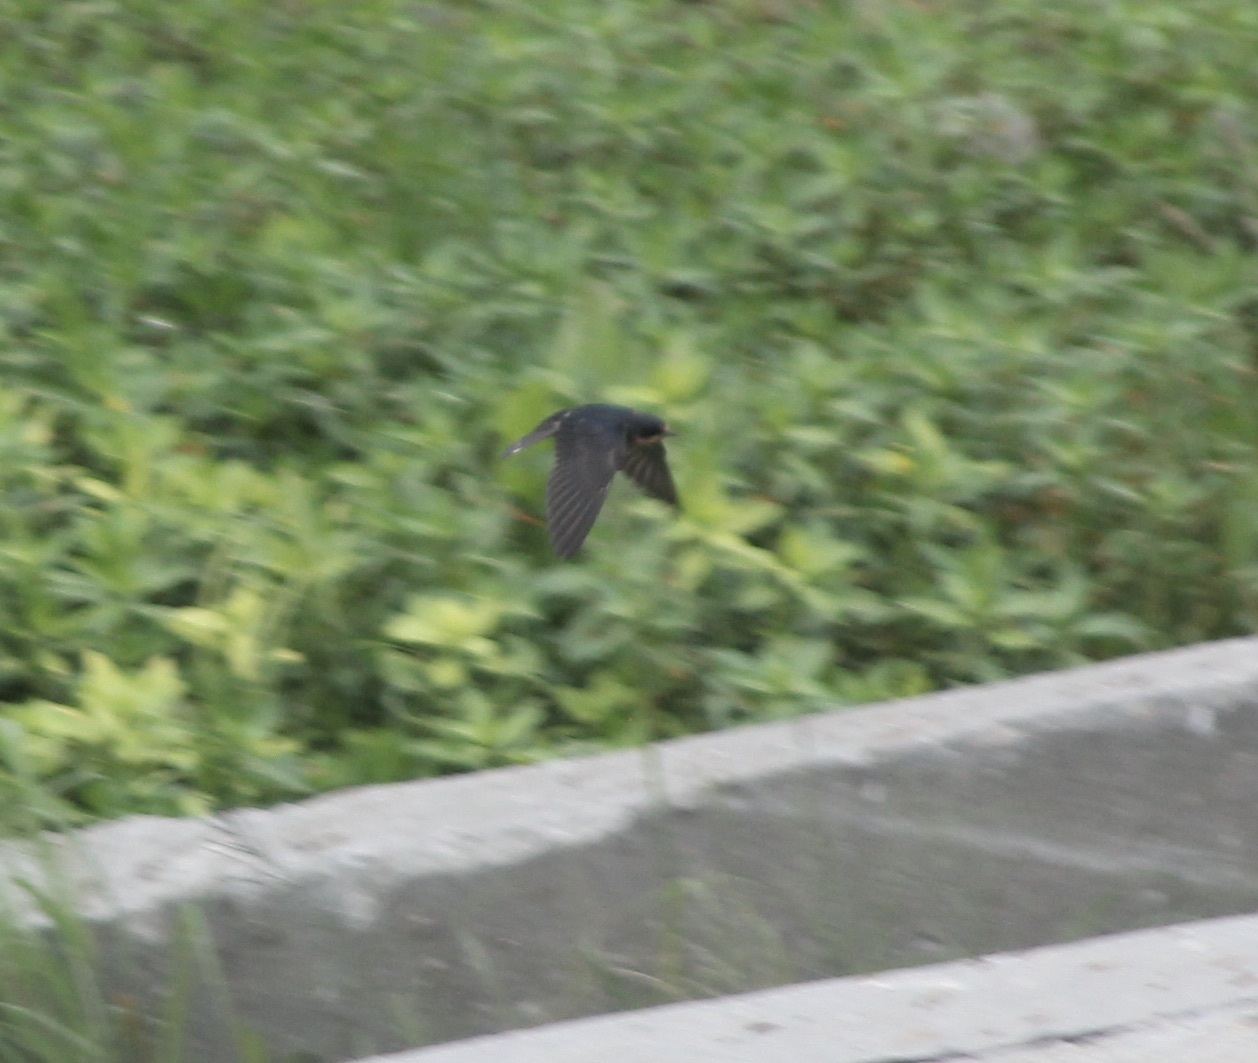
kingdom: Animalia
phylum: Chordata
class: Aves
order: Passeriformes
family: Hirundinidae
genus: Hirundo
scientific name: Hirundo rustica
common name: Barn swallow
